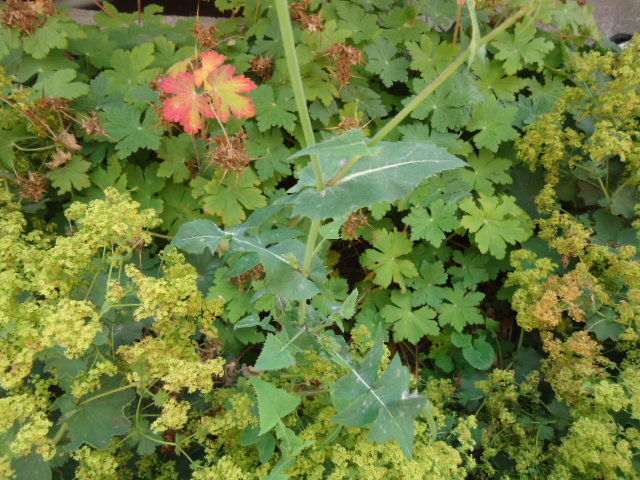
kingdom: Plantae
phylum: Tracheophyta
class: Magnoliopsida
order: Asterales
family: Asteraceae
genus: Sonchus
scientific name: Sonchus oleraceus
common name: Common sowthistle
